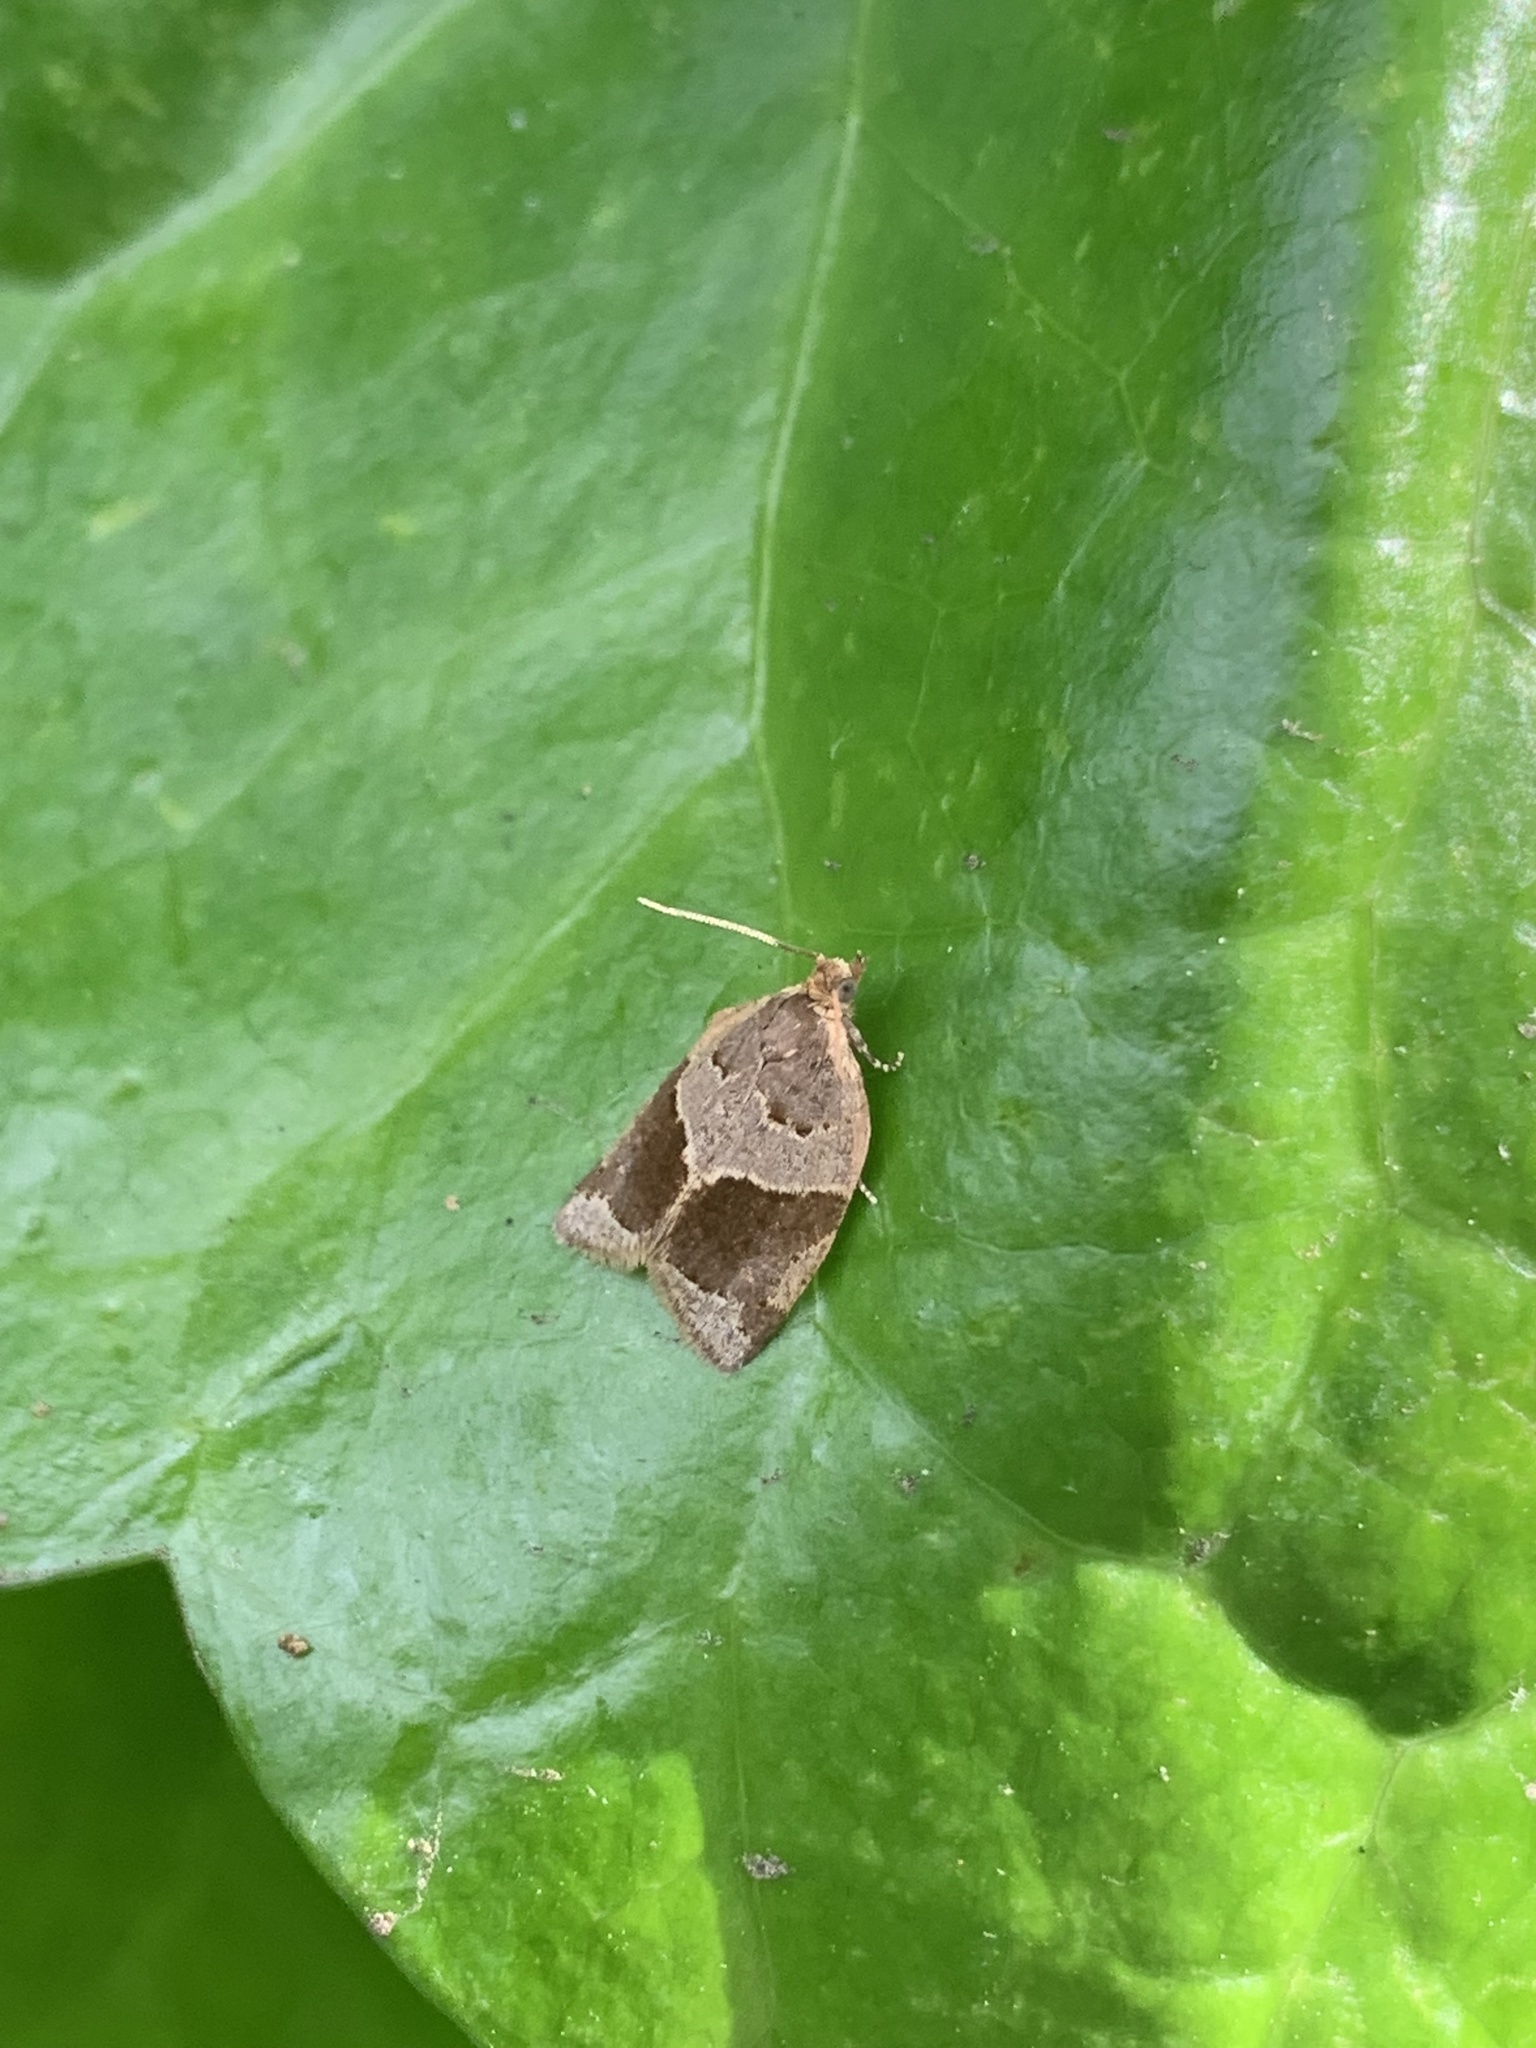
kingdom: Animalia
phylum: Arthropoda
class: Insecta
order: Lepidoptera
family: Tortricidae
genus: Clepsis
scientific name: Clepsis dumicolana
